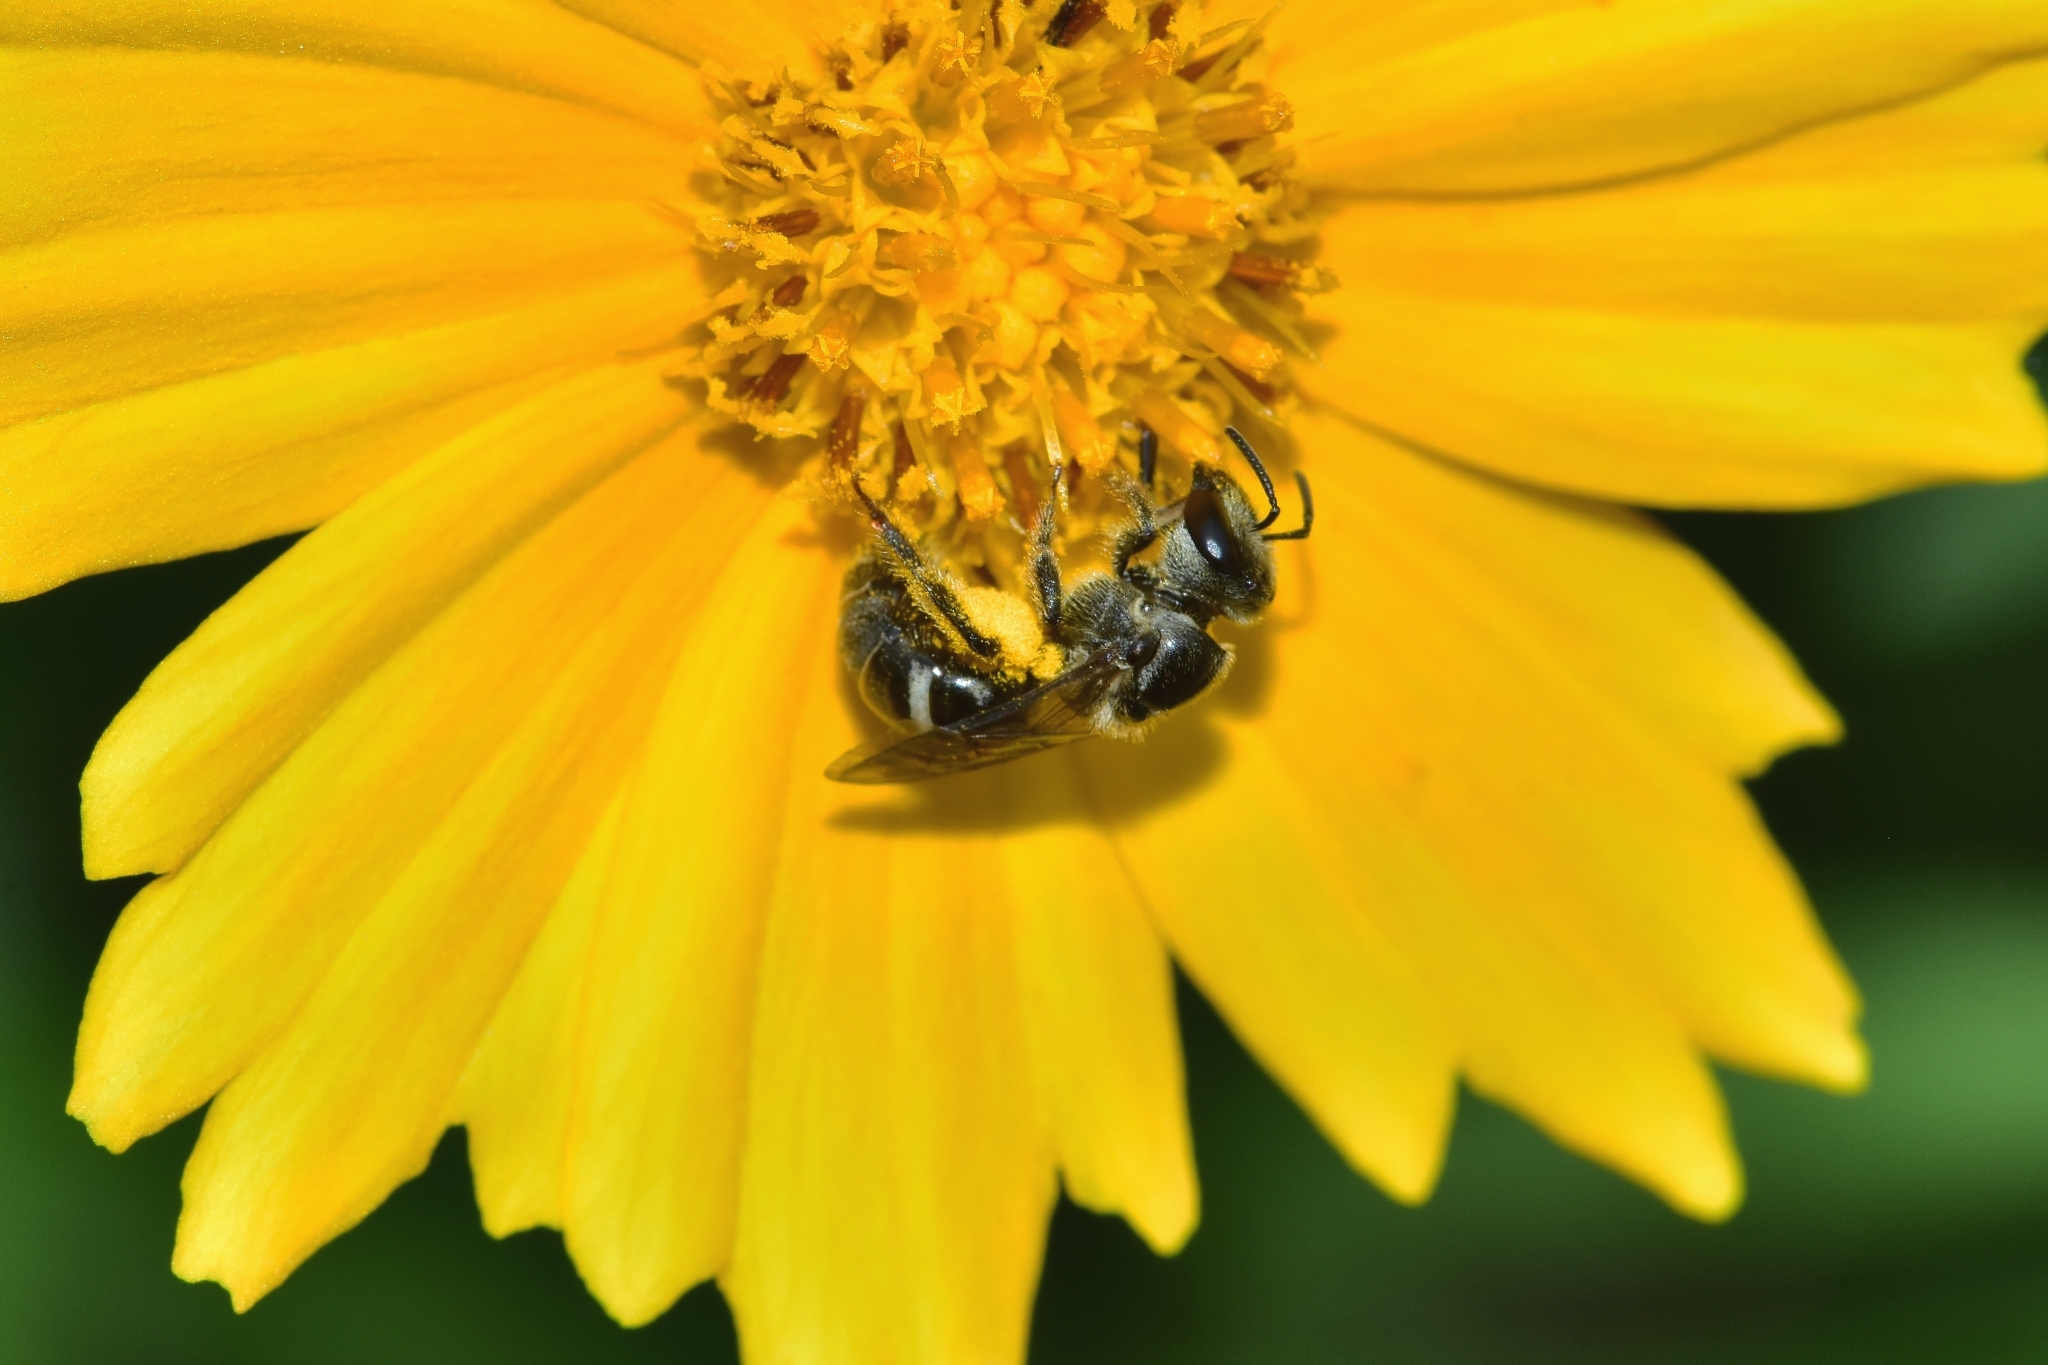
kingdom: Animalia
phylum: Arthropoda
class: Insecta
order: Hymenoptera
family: Halictidae
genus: Lasioglossum
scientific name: Lasioglossum albescens
